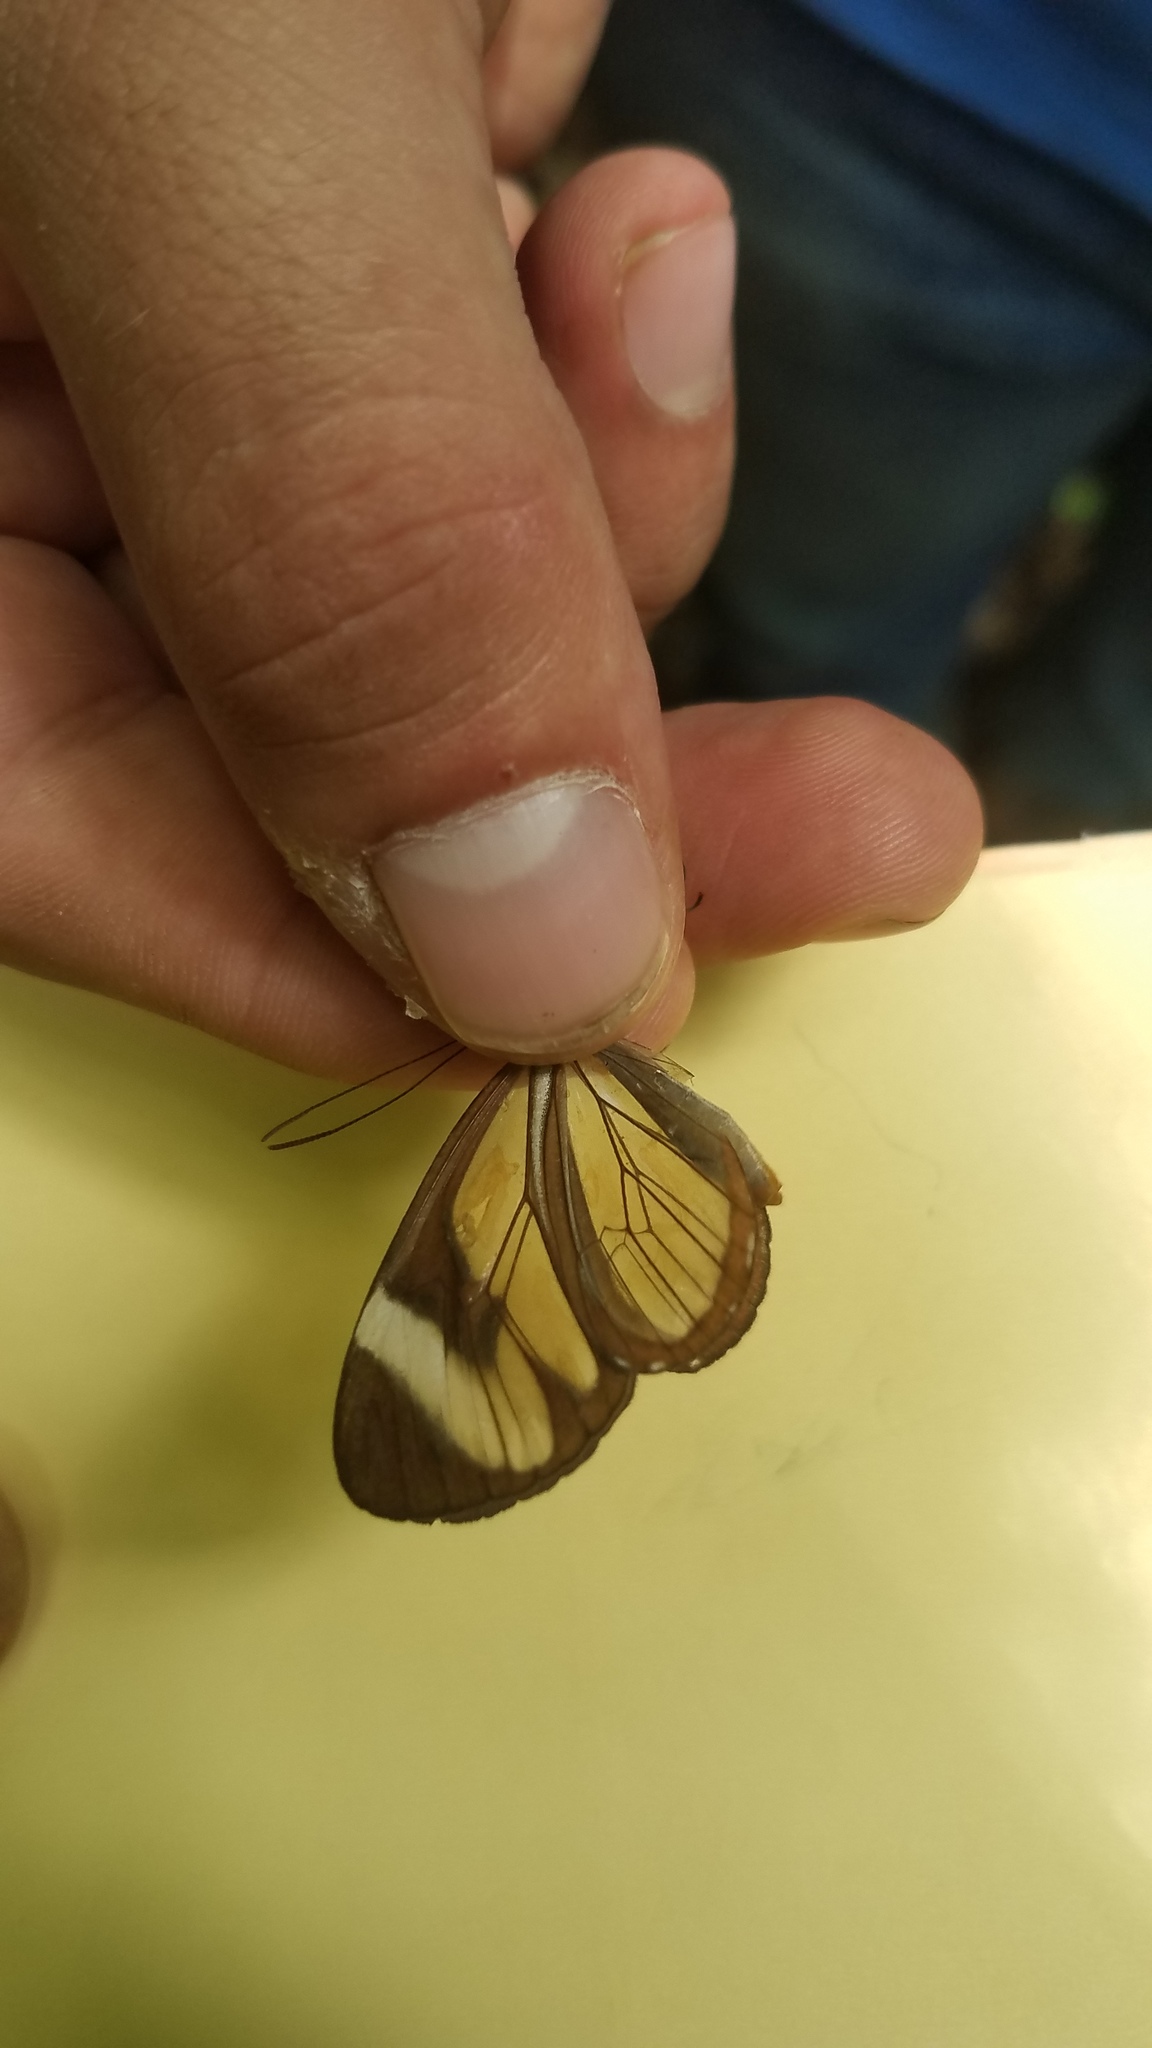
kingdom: Animalia
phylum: Arthropoda
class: Insecta
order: Lepidoptera
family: Nymphalidae
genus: Ithomia
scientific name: Ithomia patilla
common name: Patilla clearwing
